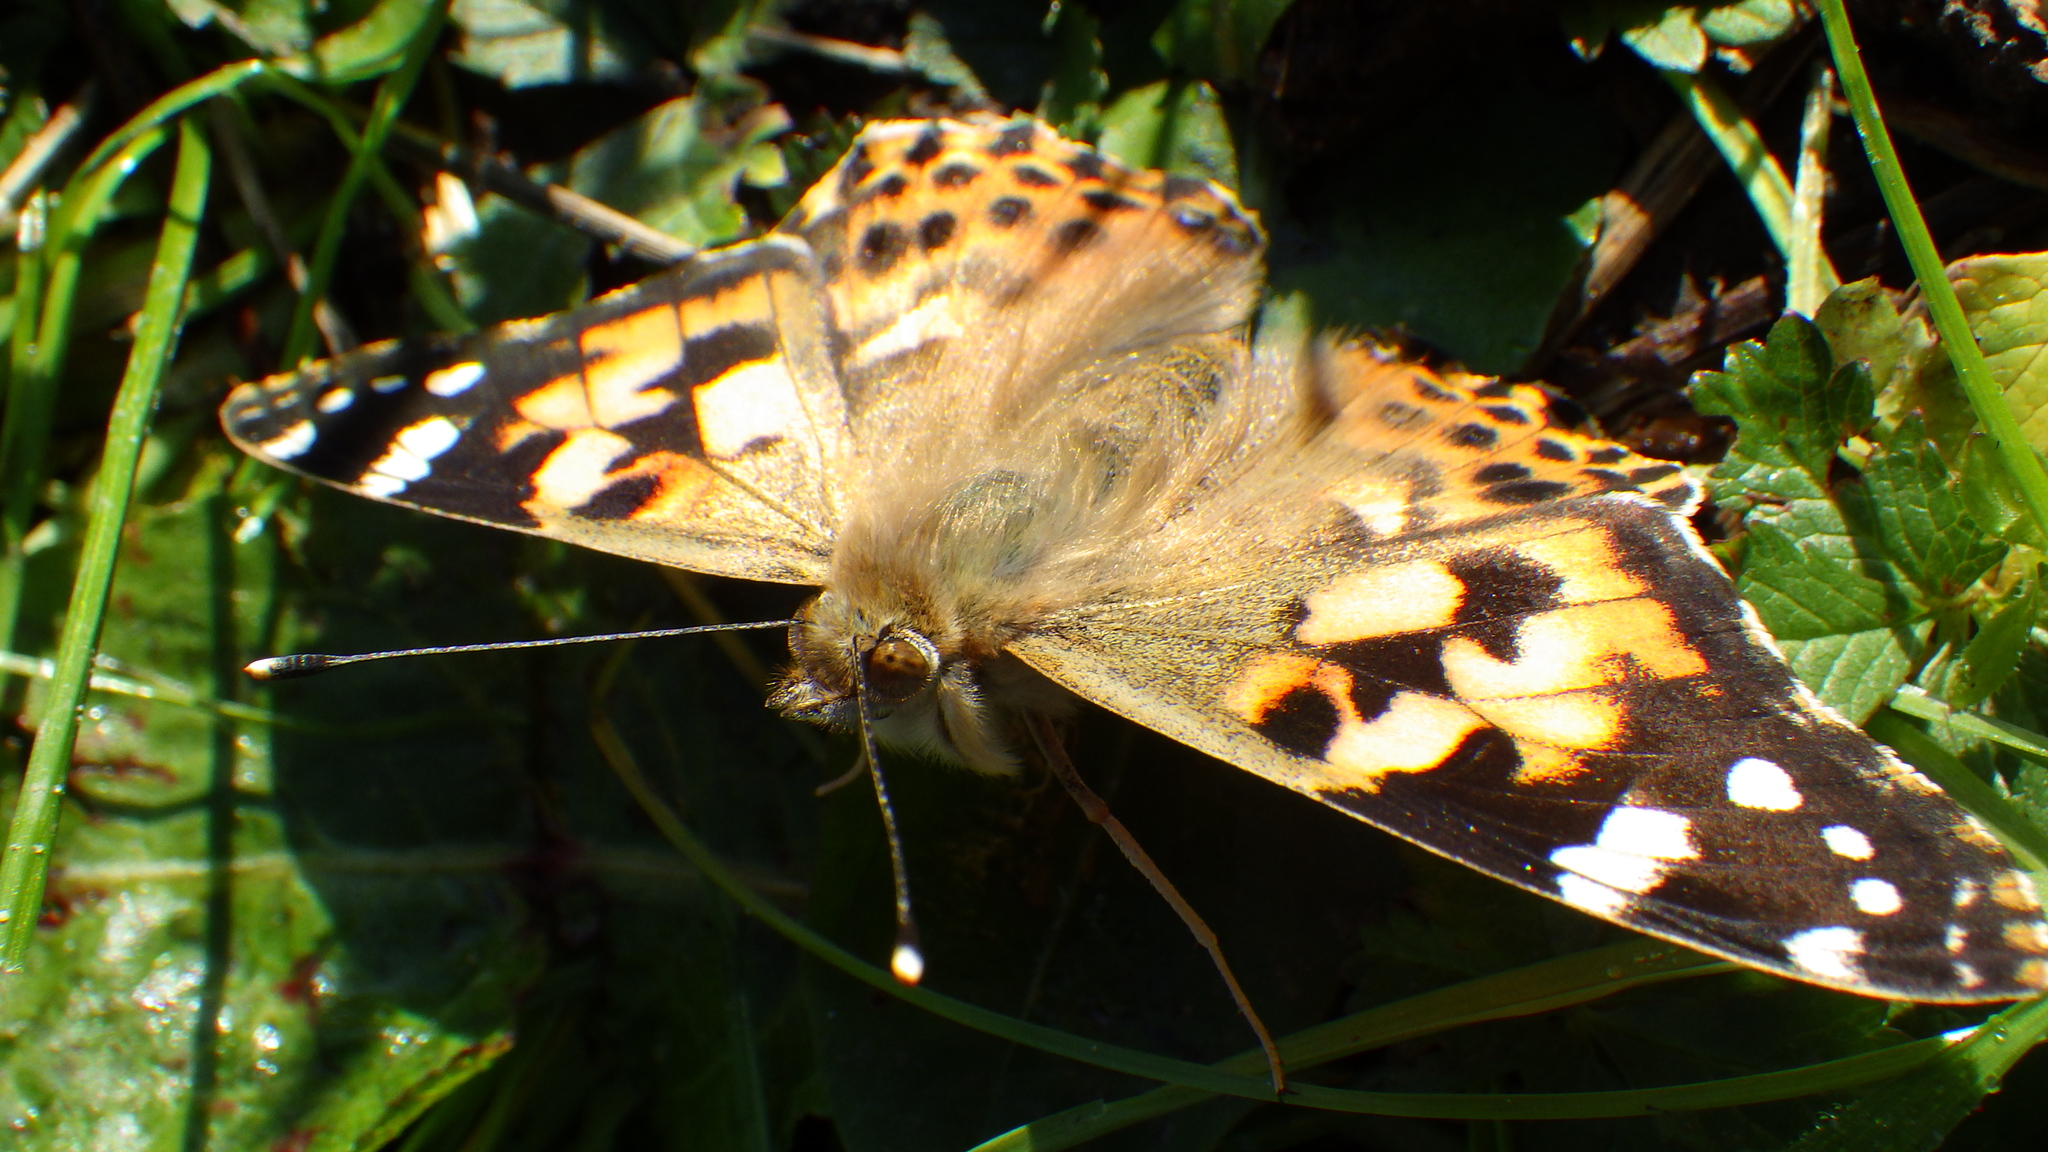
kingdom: Animalia
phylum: Arthropoda
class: Insecta
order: Lepidoptera
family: Nymphalidae
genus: Vanessa
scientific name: Vanessa cardui
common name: Painted lady
